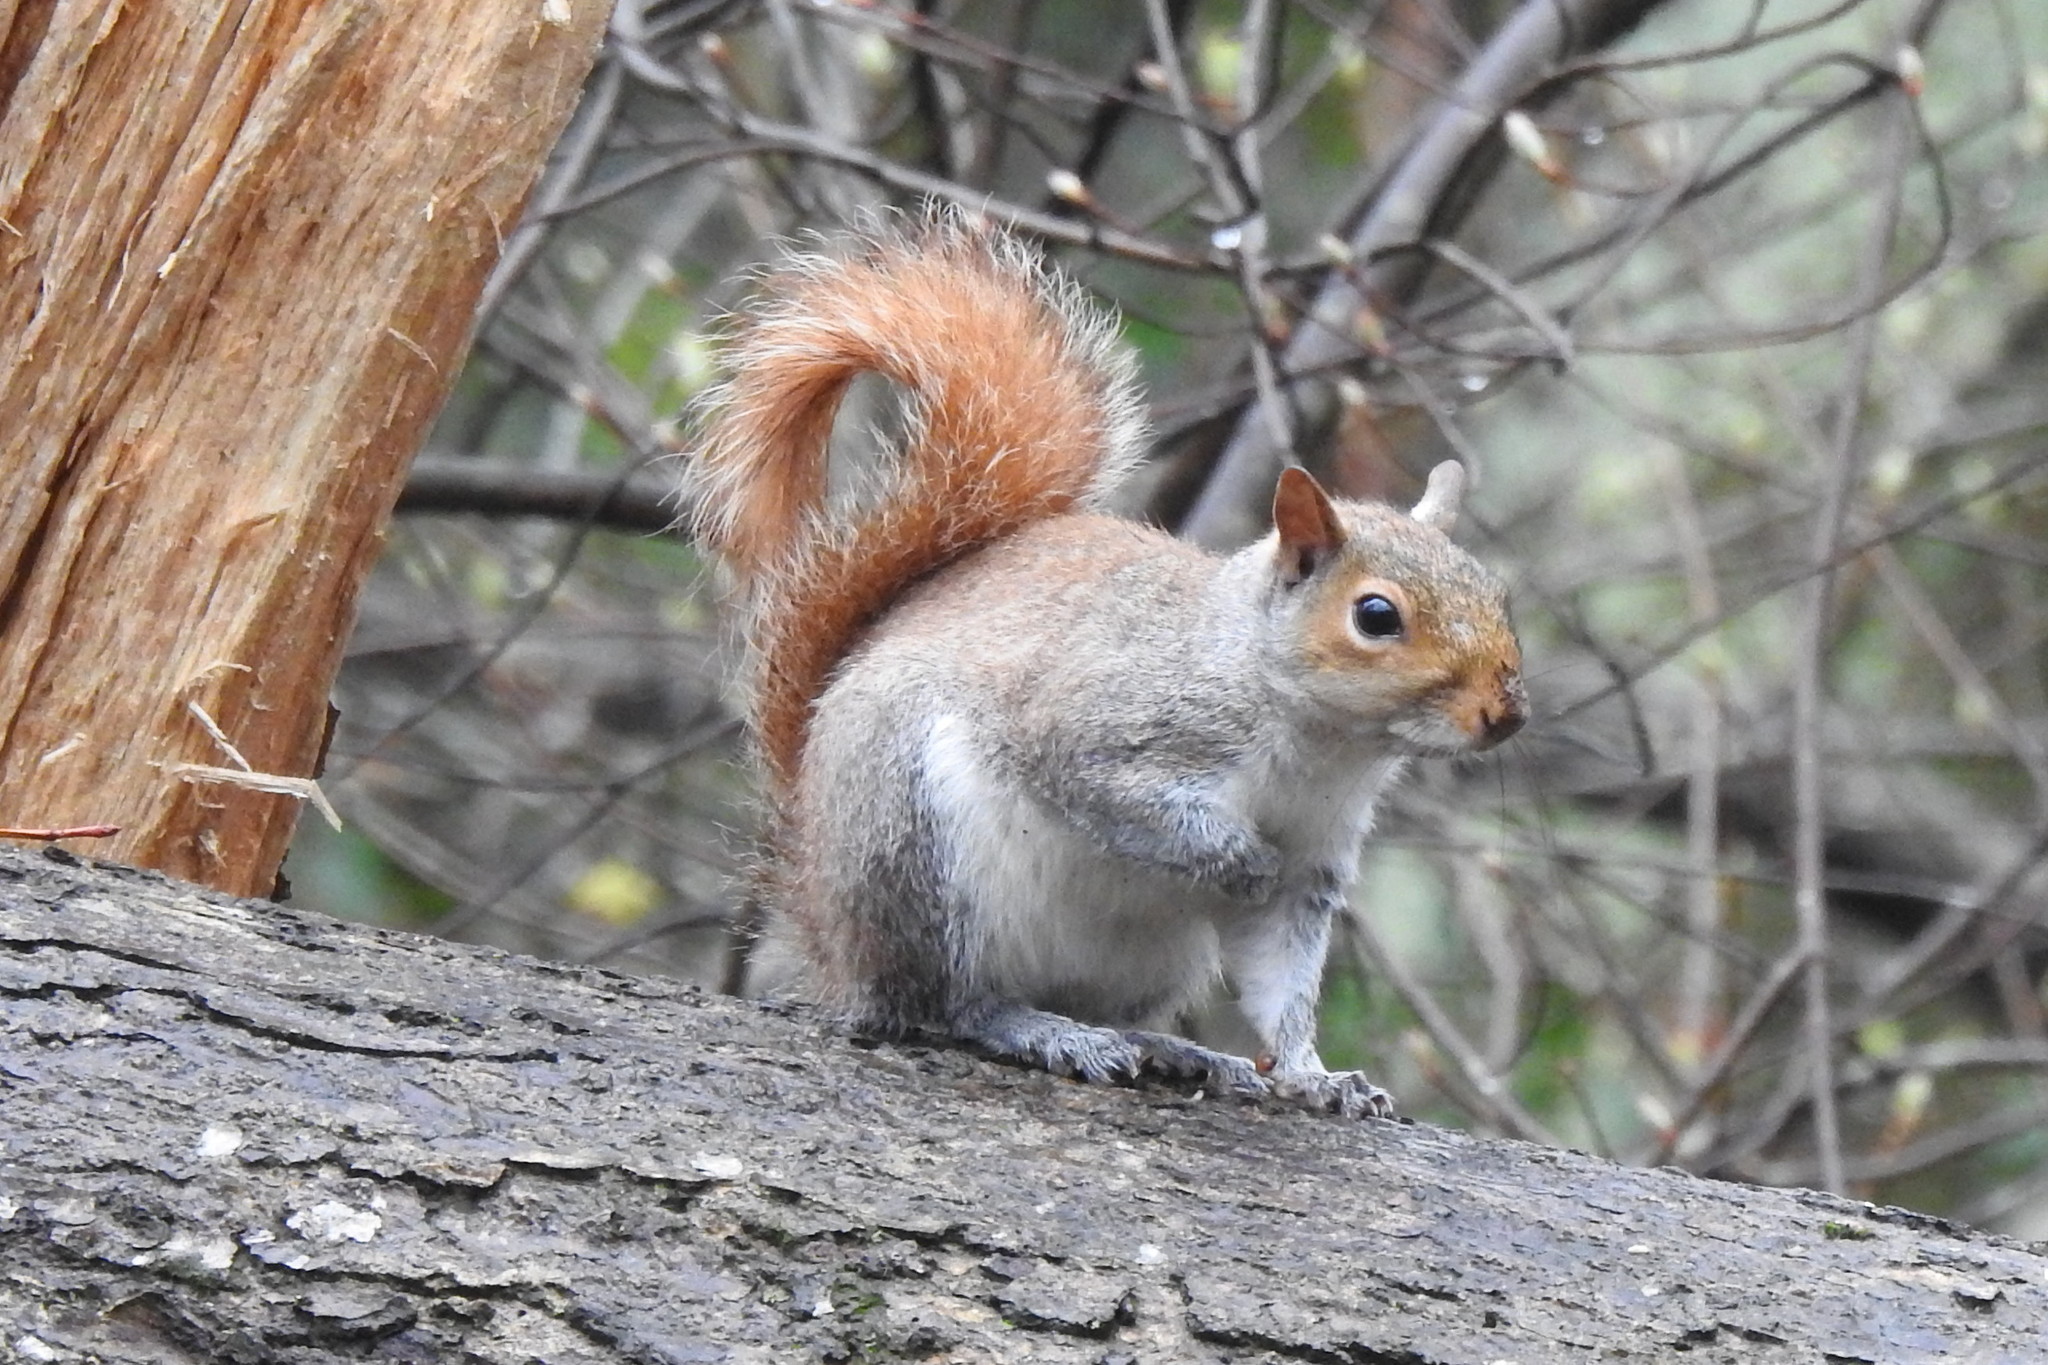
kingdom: Animalia
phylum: Chordata
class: Mammalia
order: Rodentia
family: Sciuridae
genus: Sciurus
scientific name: Sciurus carolinensis
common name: Eastern gray squirrel
